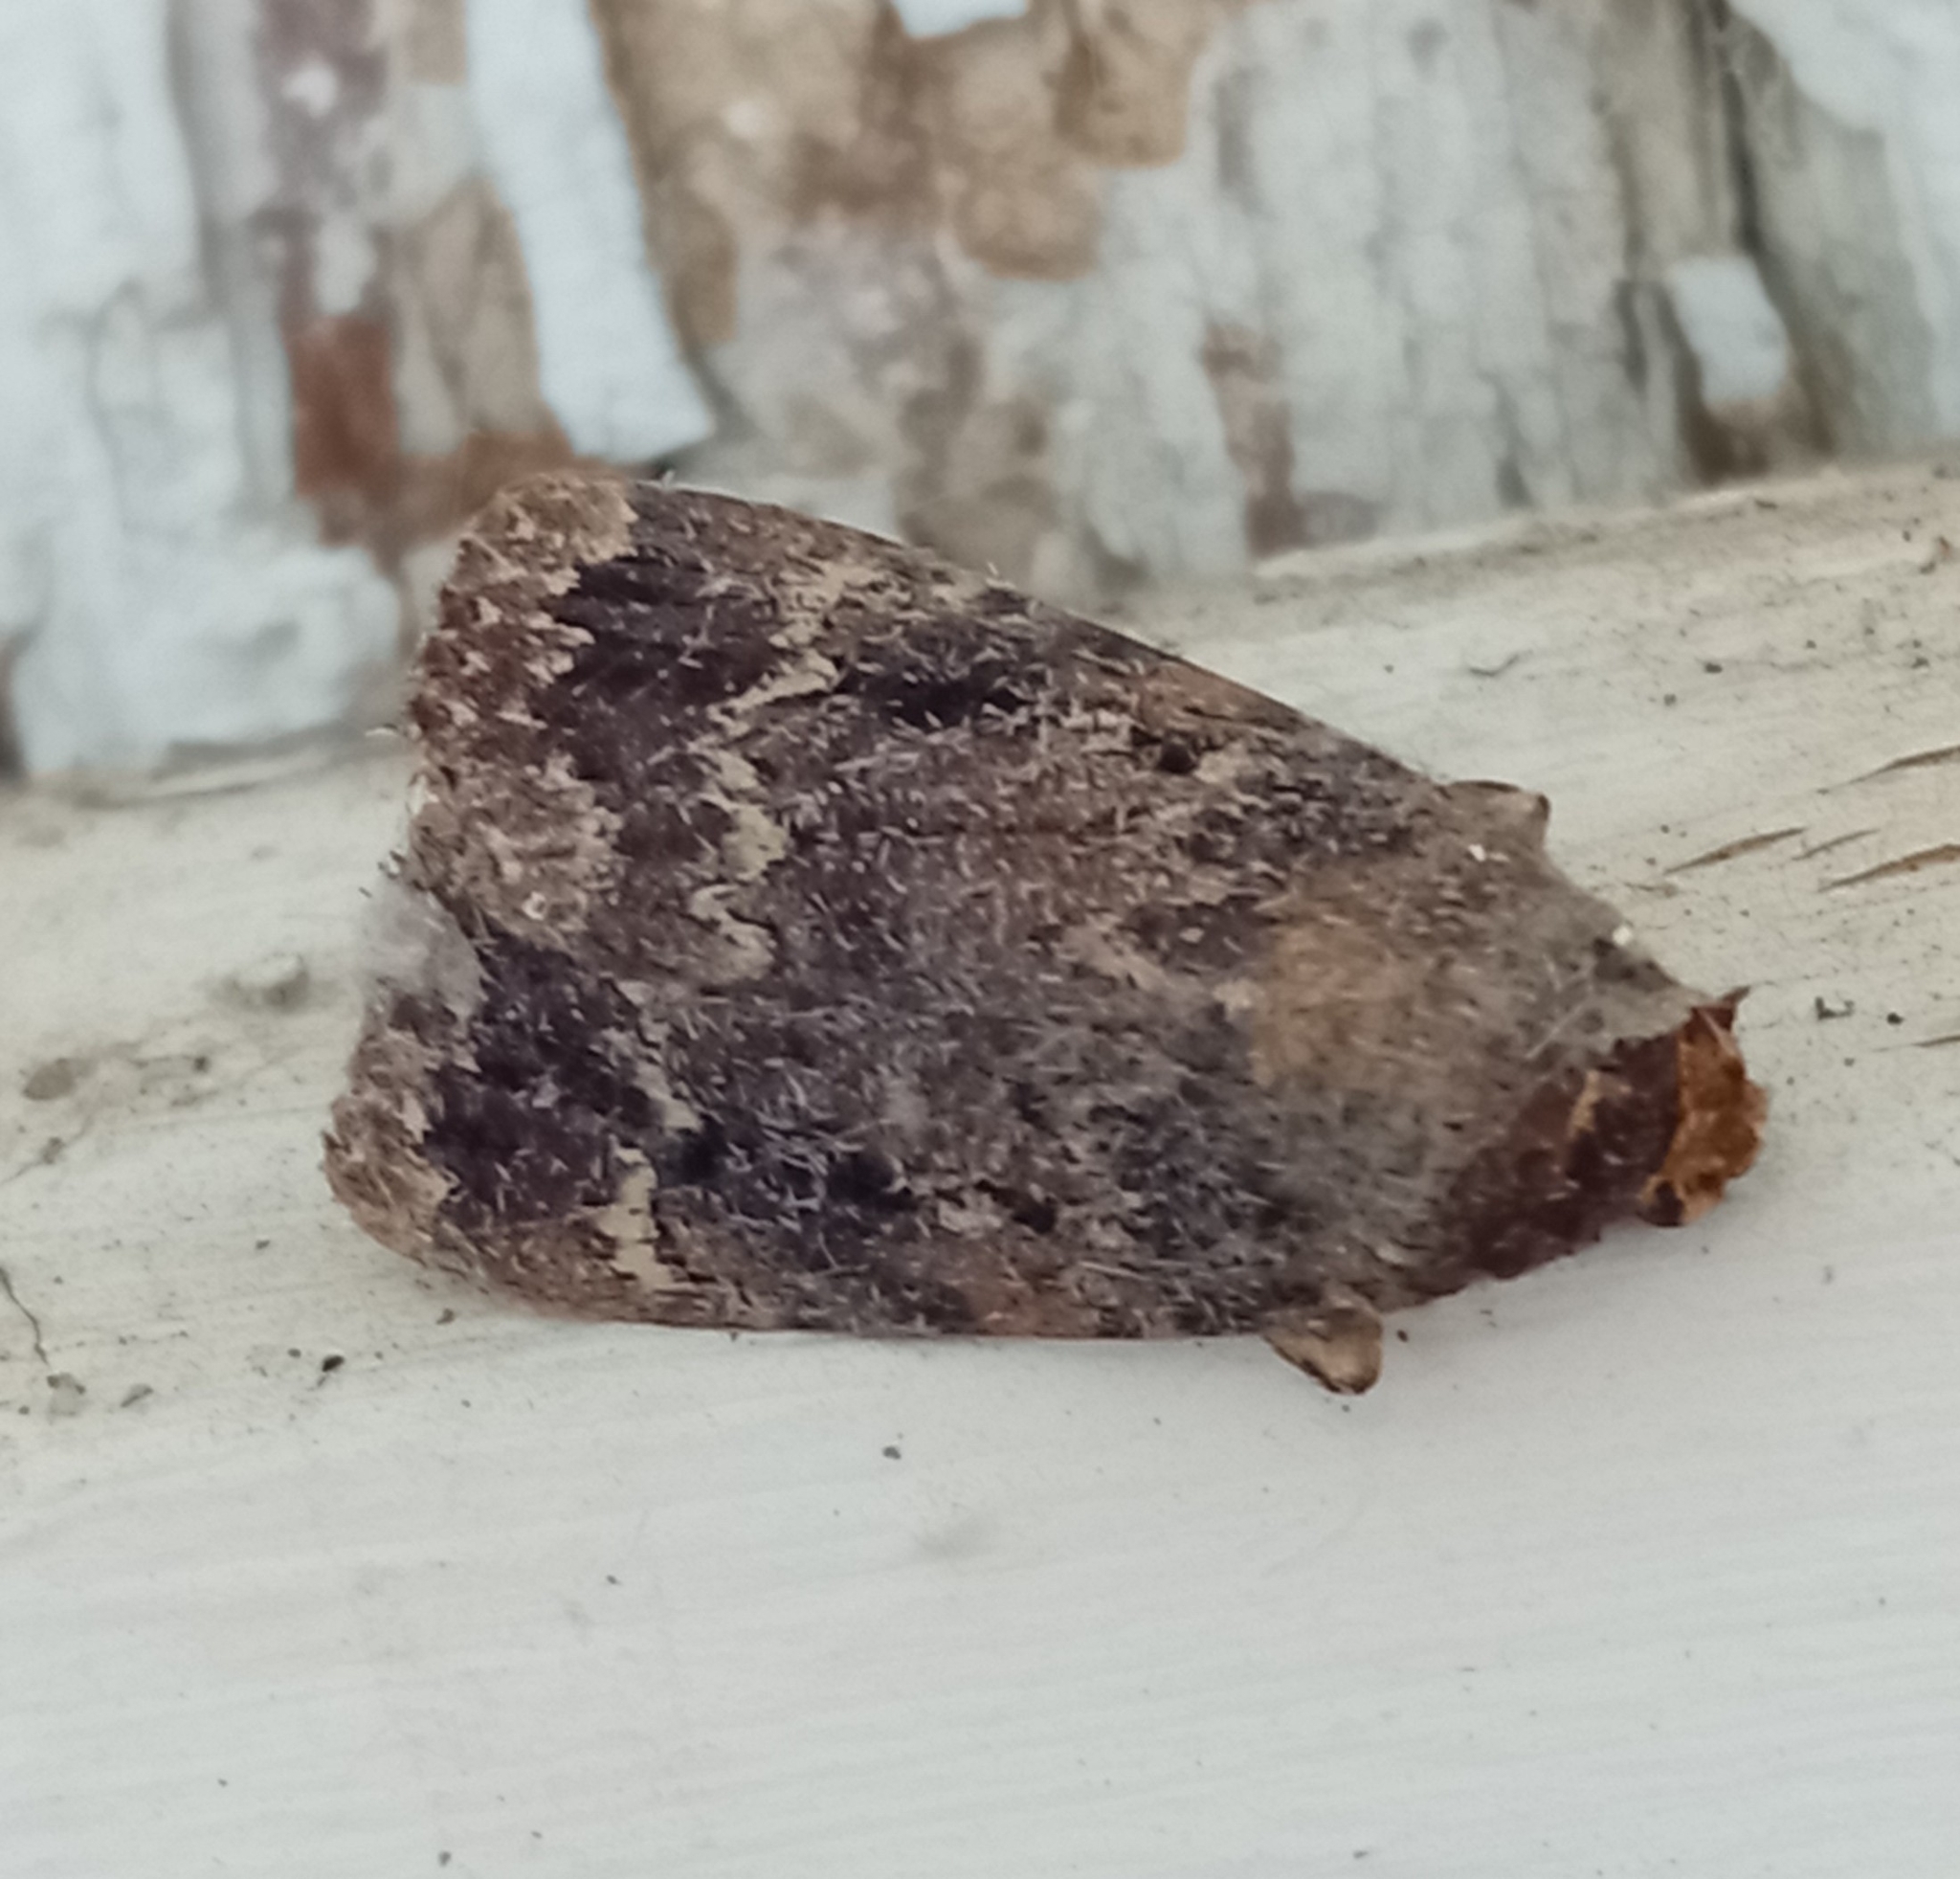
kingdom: Animalia
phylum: Arthropoda
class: Insecta
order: Lepidoptera
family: Noctuidae
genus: Amphipyra
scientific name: Amphipyra
